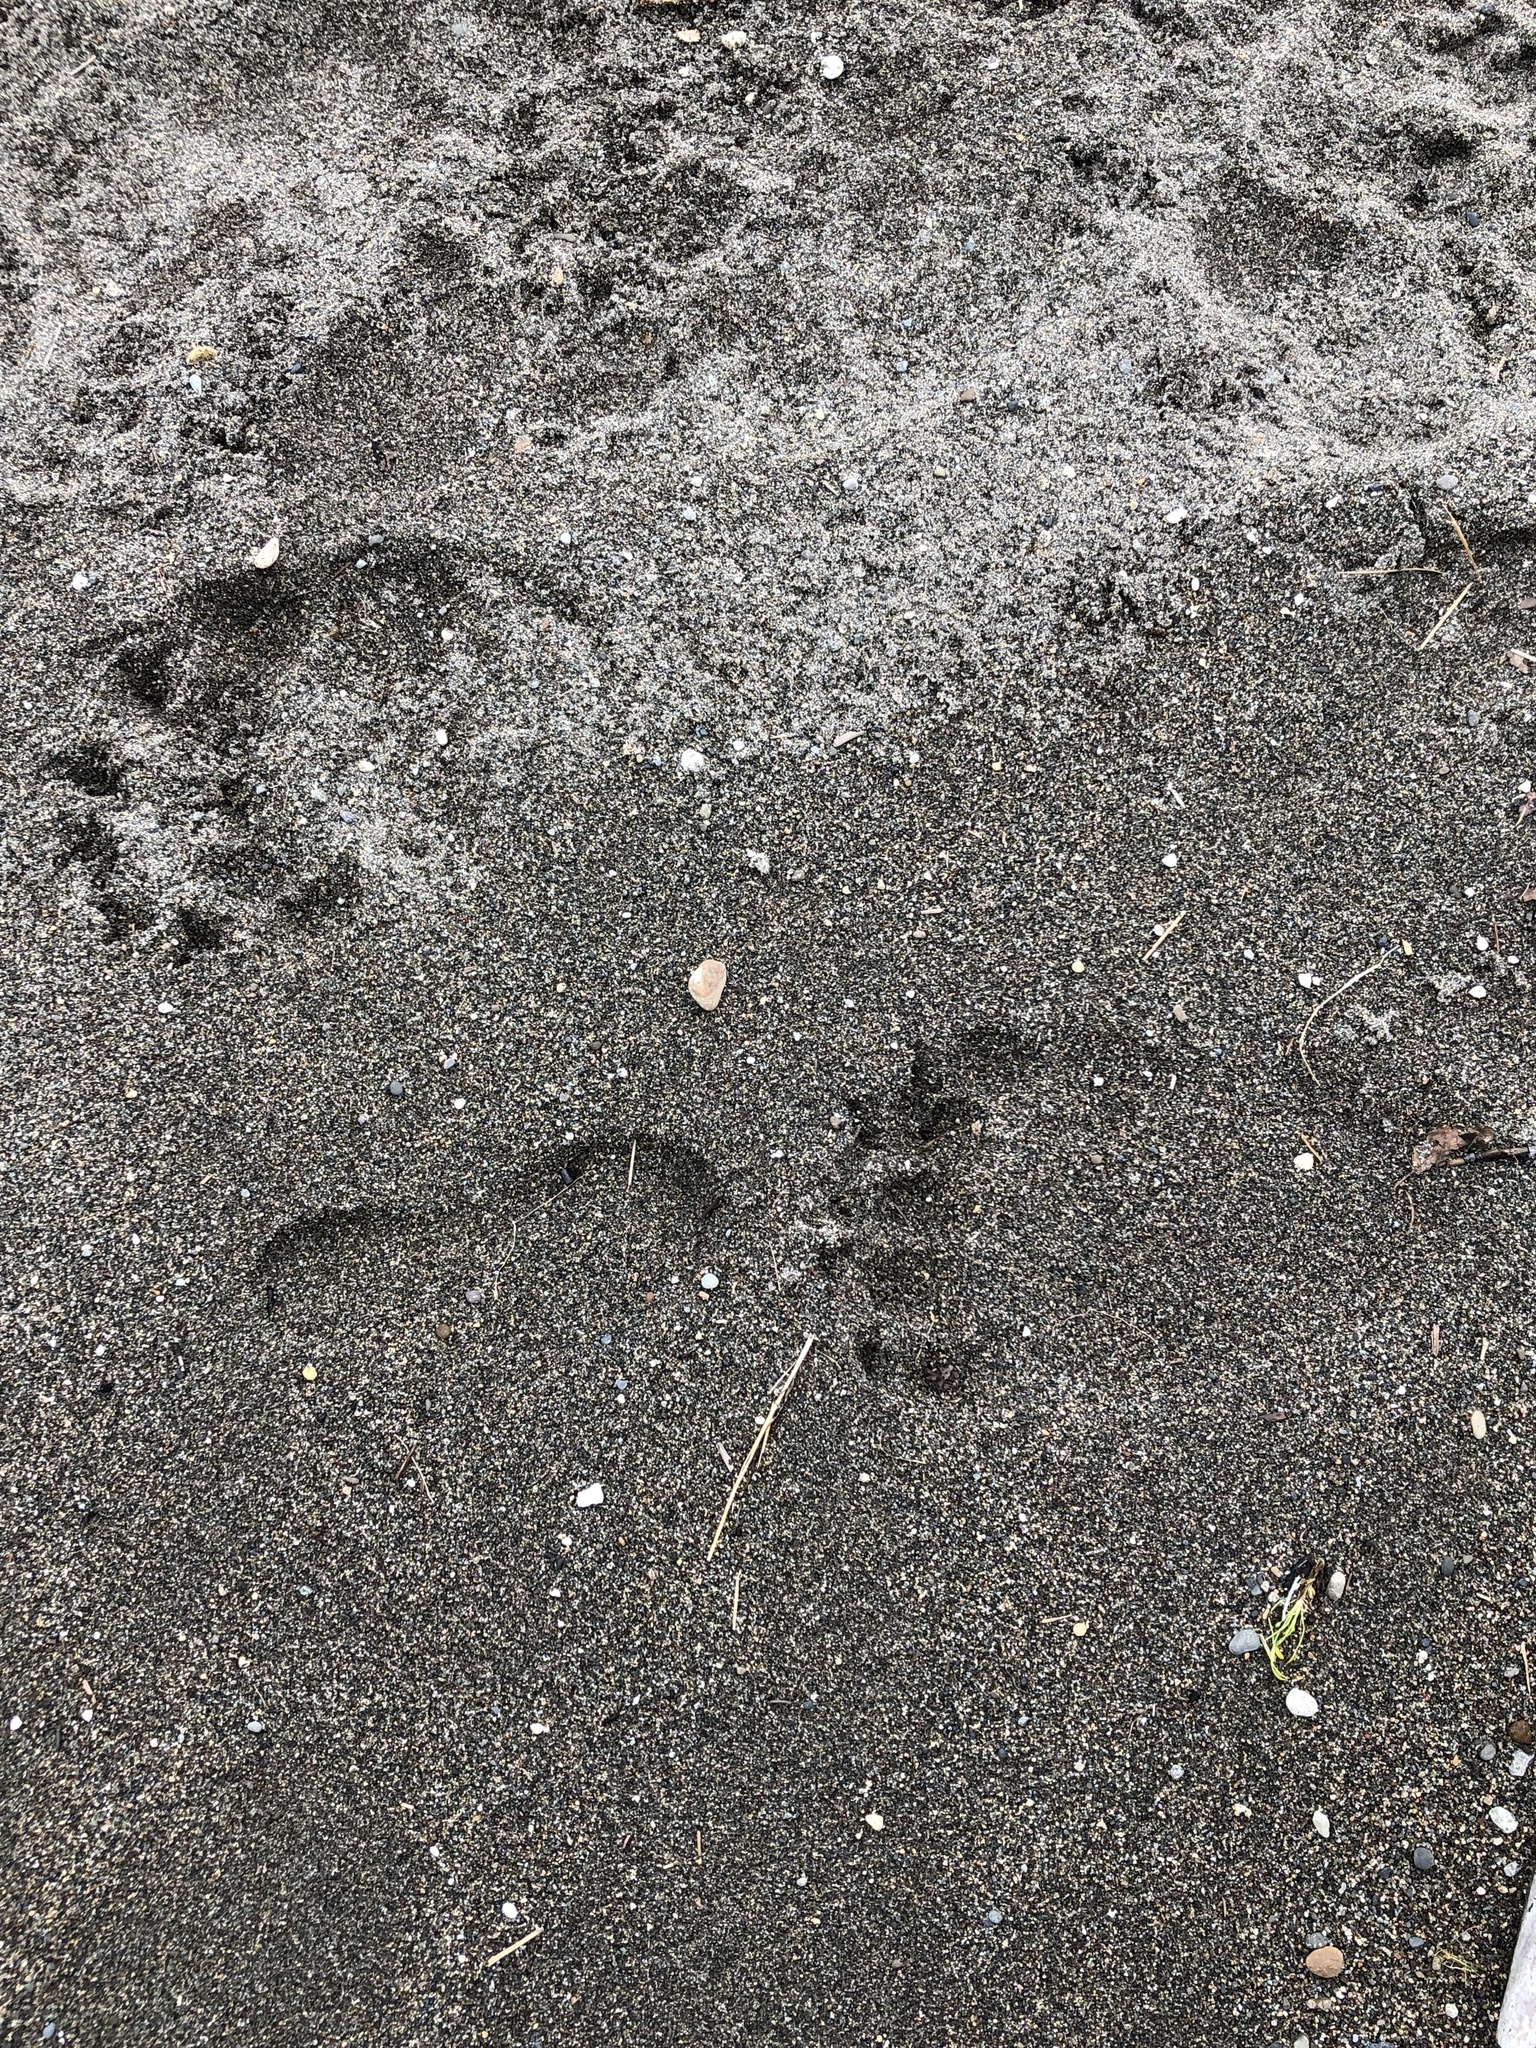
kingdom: Animalia
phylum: Chordata
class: Mammalia
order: Carnivora
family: Ursidae
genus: Ursus
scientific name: Ursus arctos
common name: Brown bear
